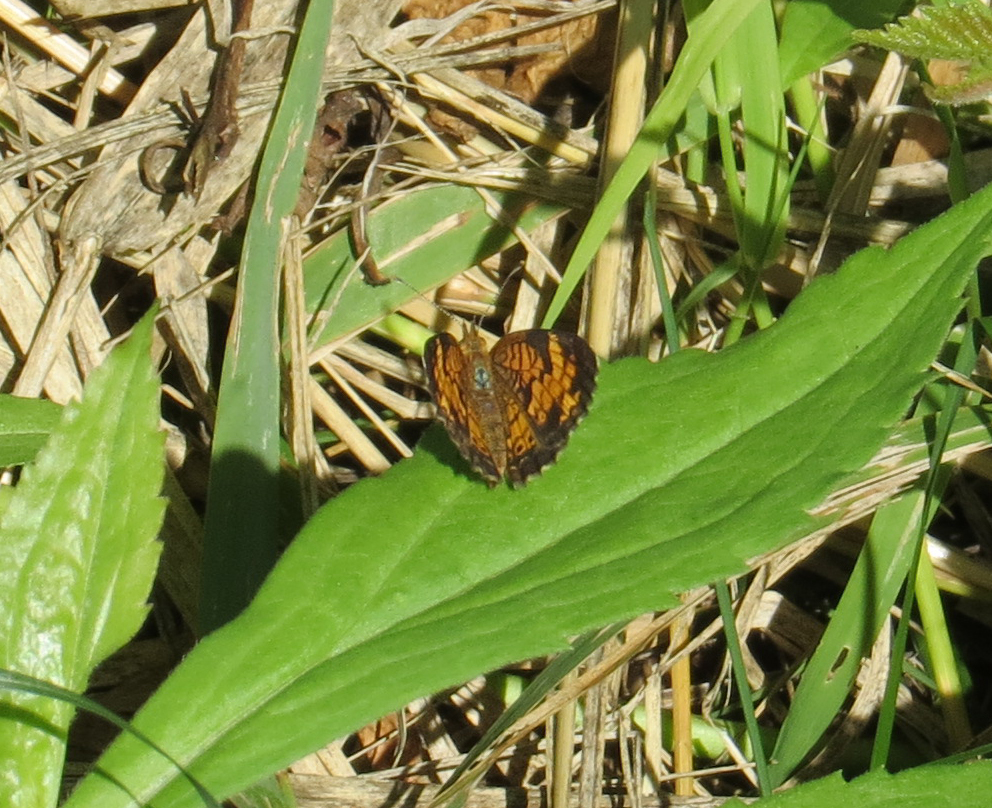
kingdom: Animalia
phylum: Arthropoda
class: Insecta
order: Lepidoptera
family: Nymphalidae
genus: Phyciodes
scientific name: Phyciodes tharos
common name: Pearl crescent
